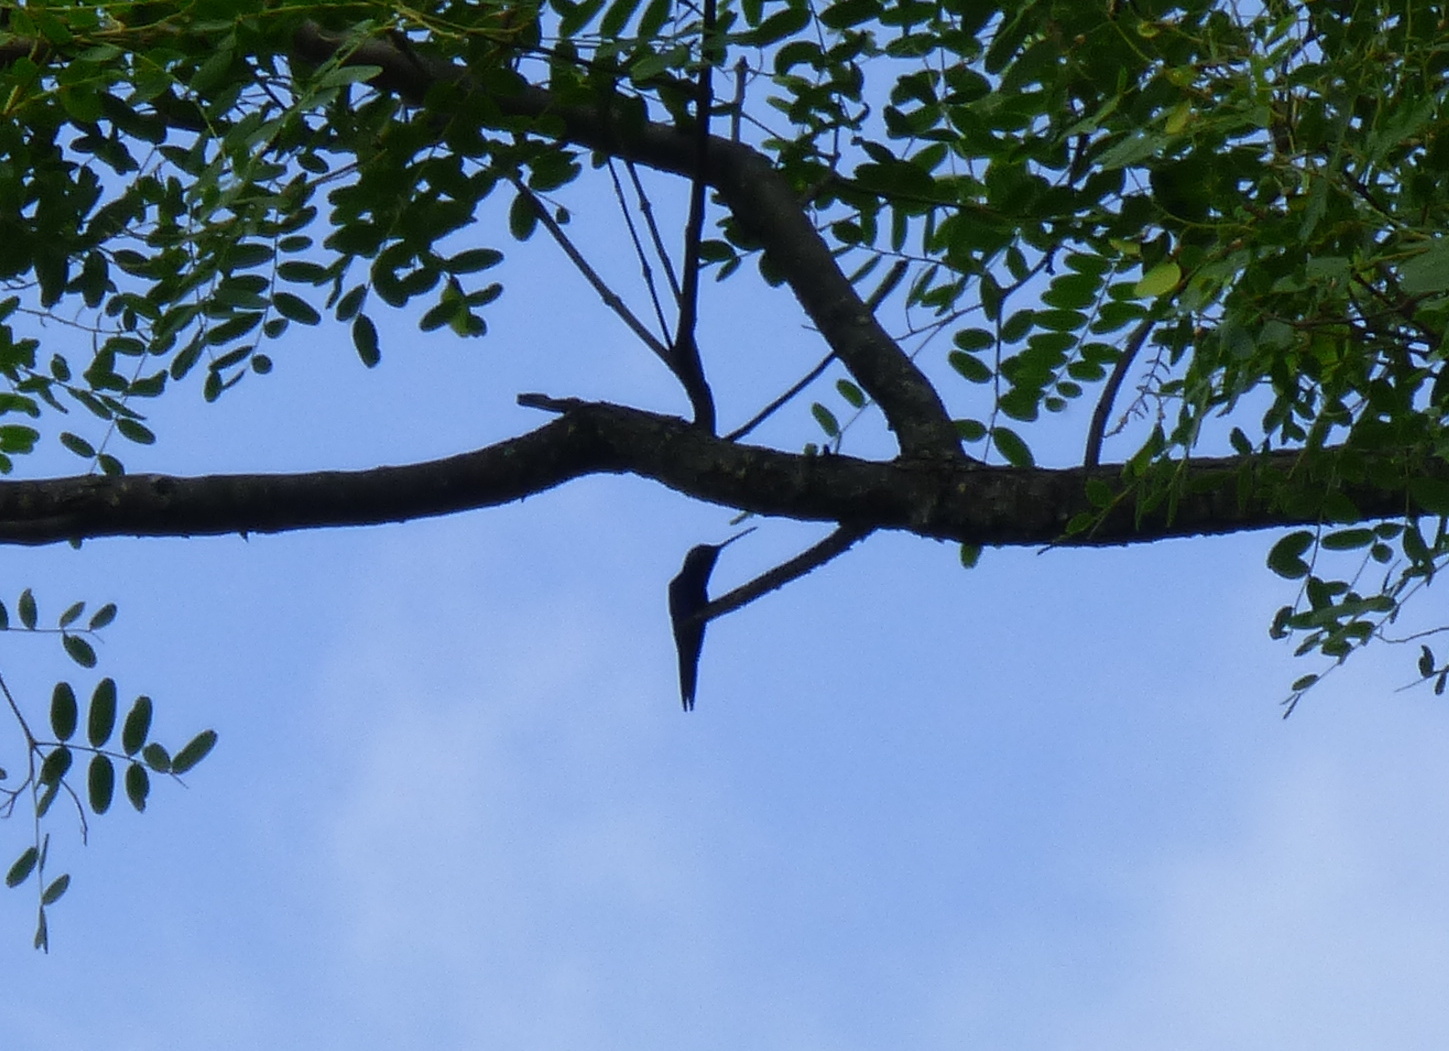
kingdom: Animalia
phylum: Chordata
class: Aves
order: Apodiformes
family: Trochilidae
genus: Heliomaster
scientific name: Heliomaster furcifer
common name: Blue-tufted starthroat
